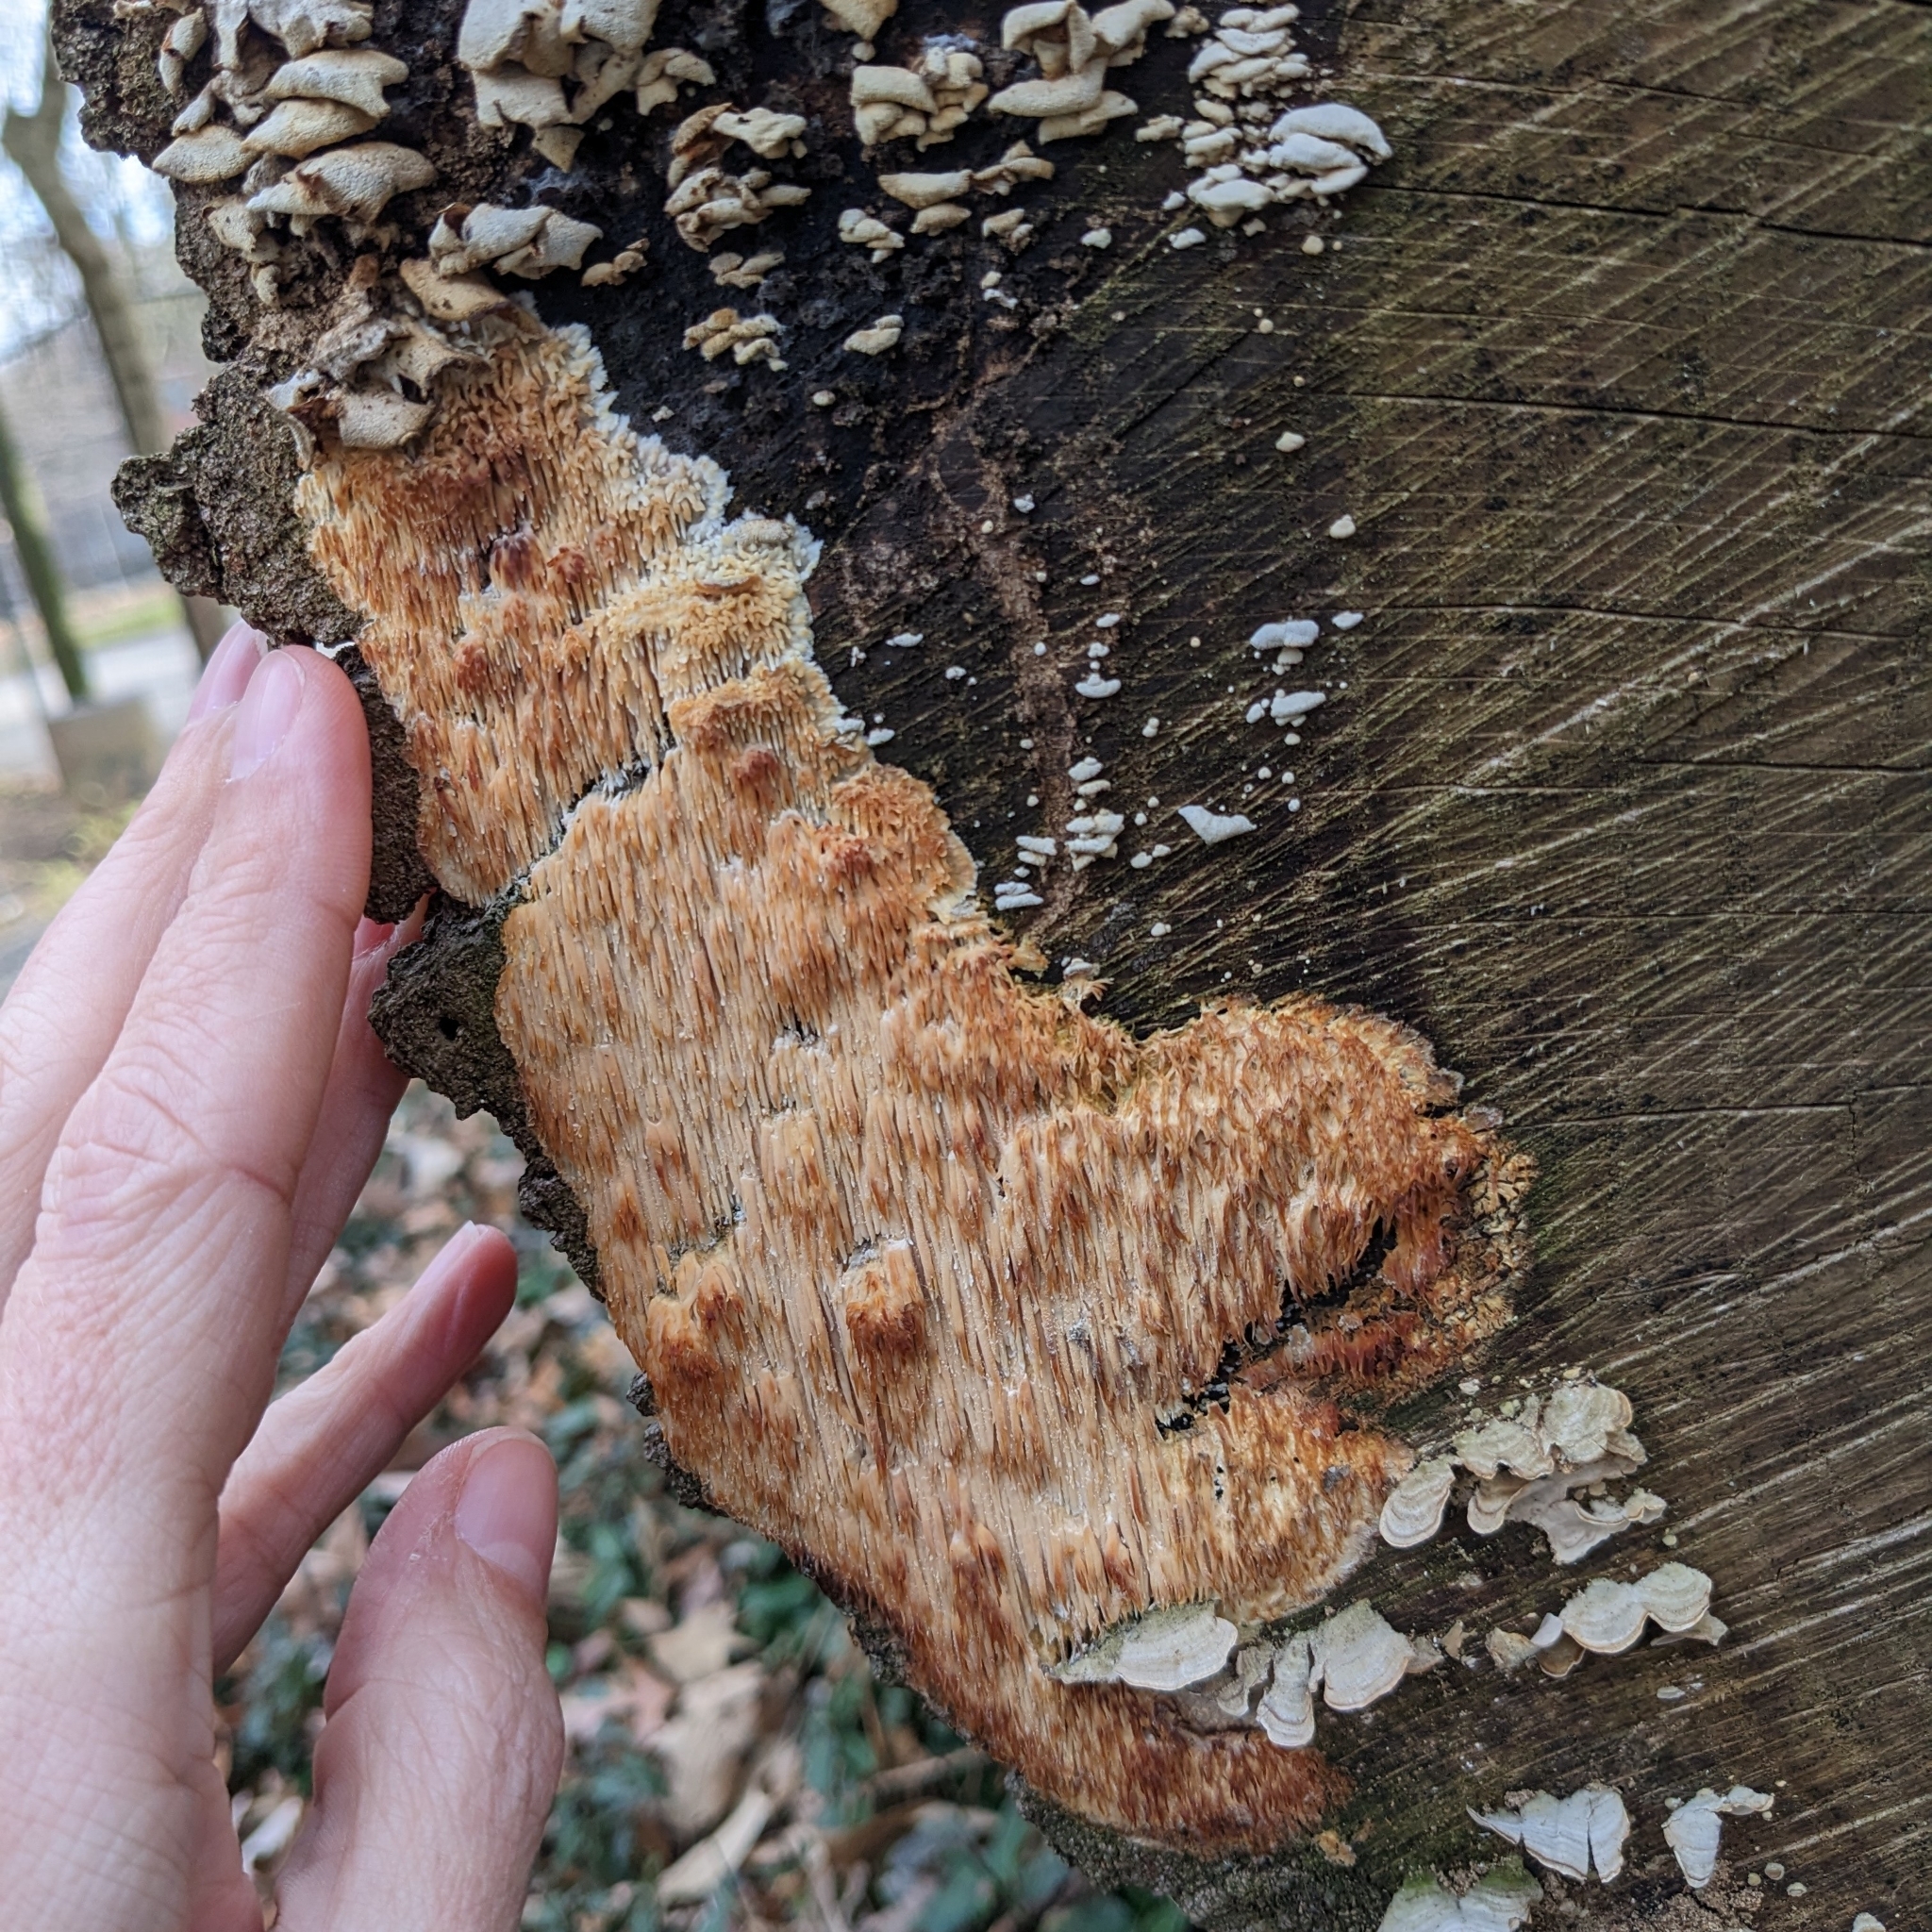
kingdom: Fungi
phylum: Basidiomycota
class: Agaricomycetes
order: Agaricales
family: Radulomycetaceae
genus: Radulomyces
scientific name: Radulomyces copelandii
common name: Asian beauty
